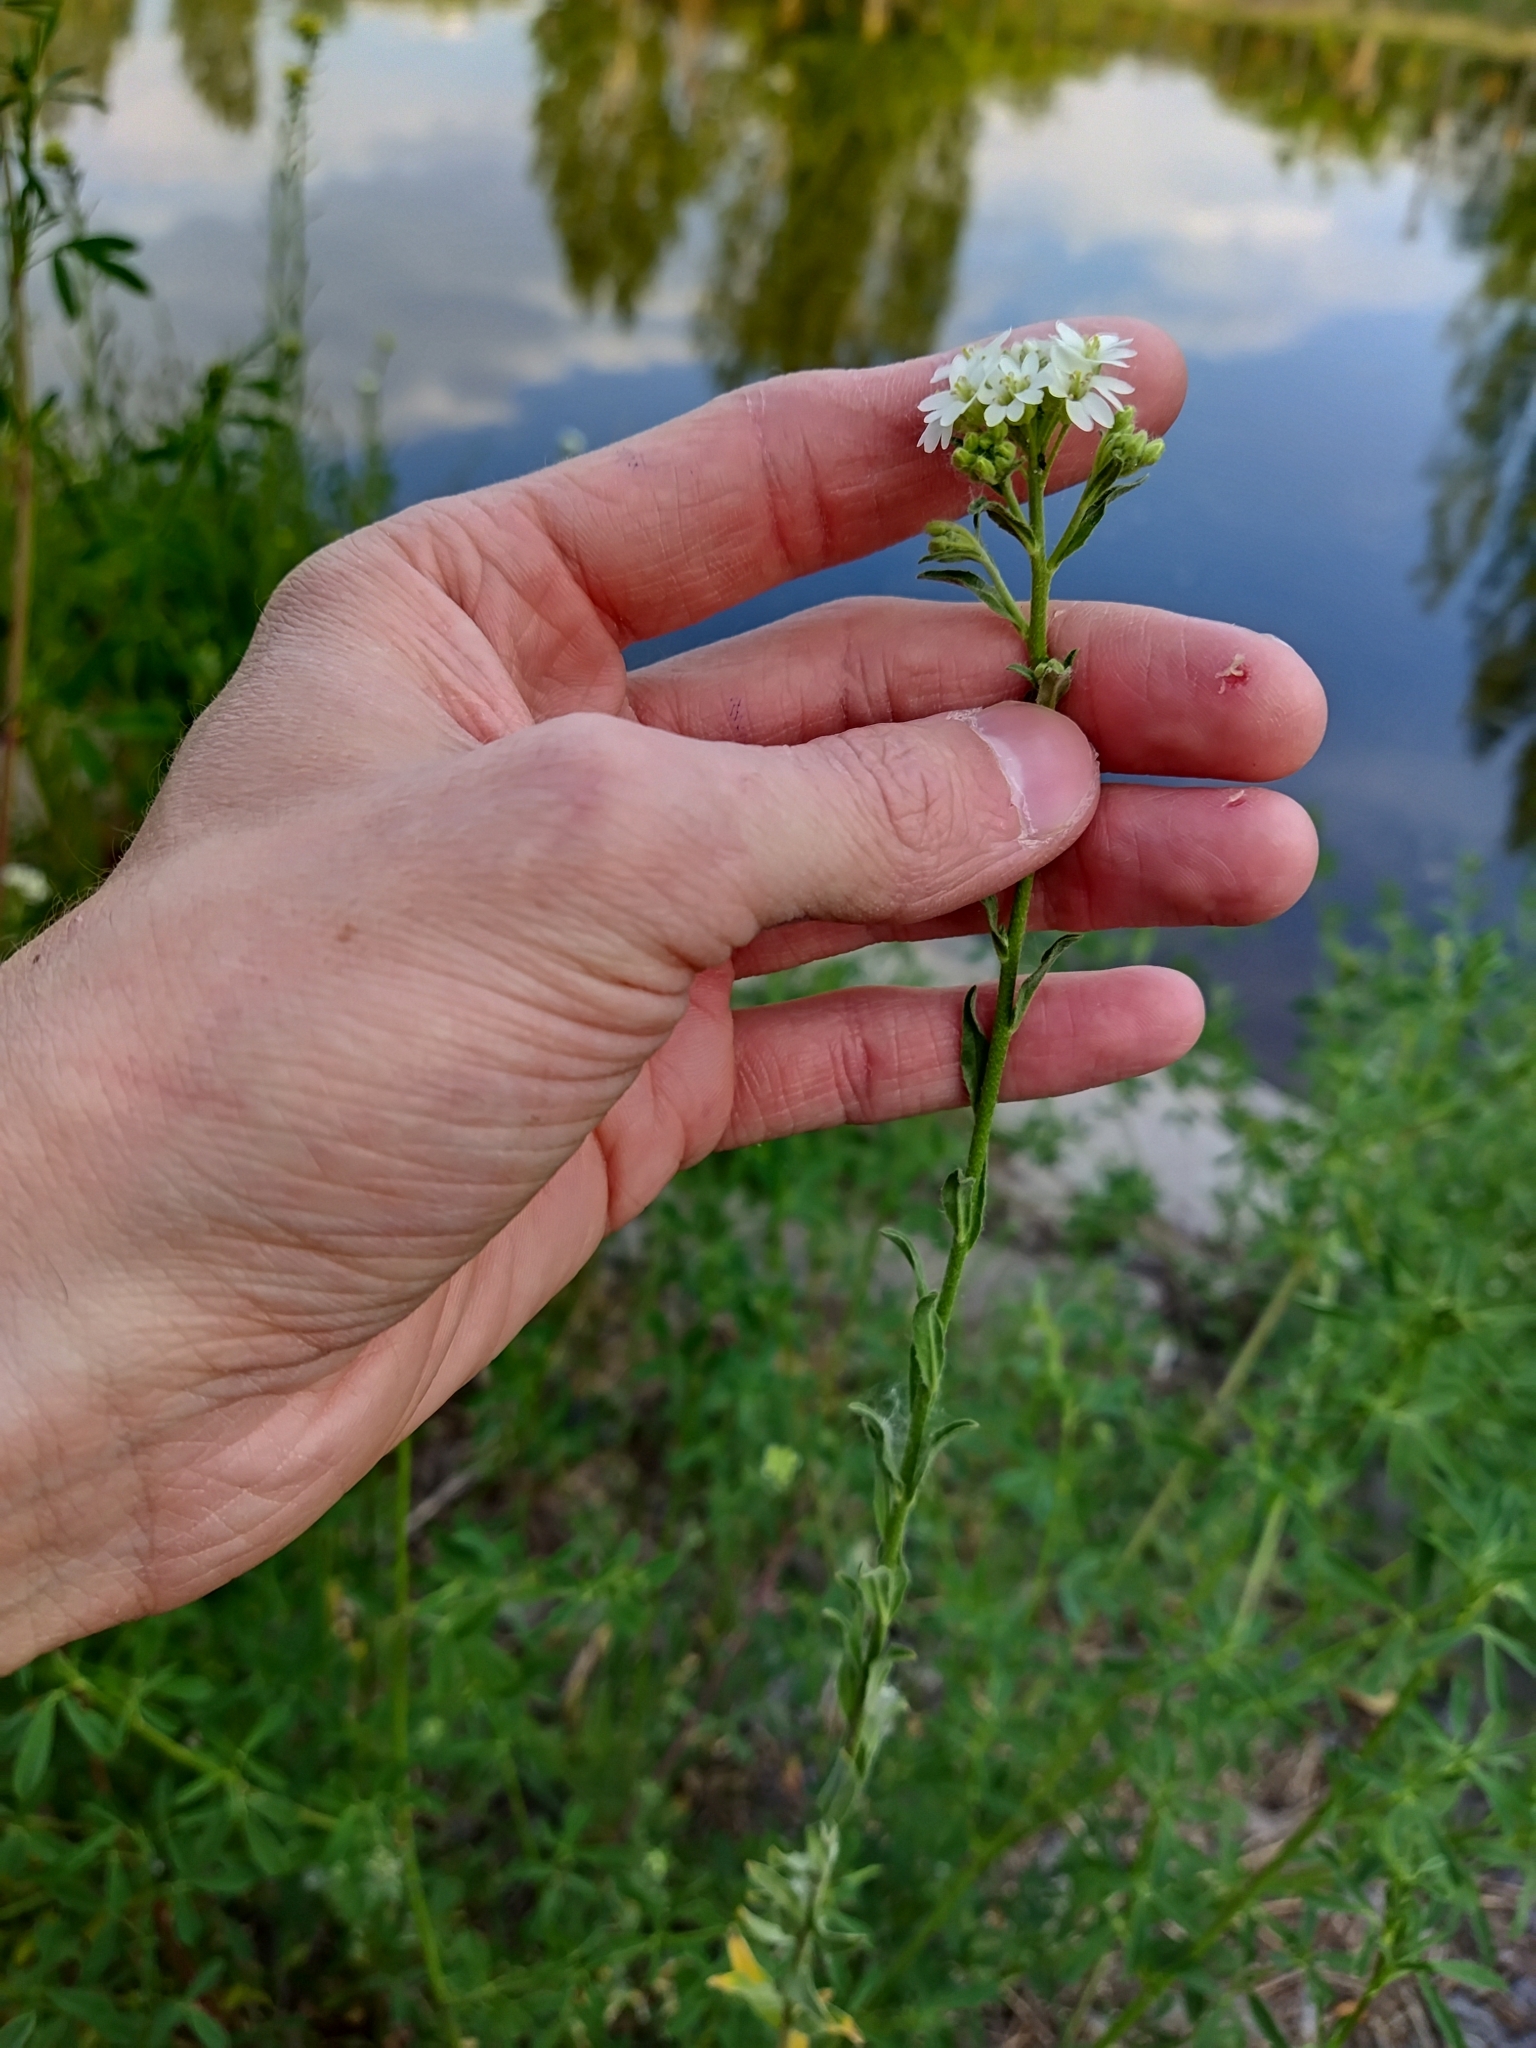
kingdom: Plantae
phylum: Tracheophyta
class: Magnoliopsida
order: Brassicales
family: Brassicaceae
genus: Berteroa
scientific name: Berteroa incana
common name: Hoary alison
